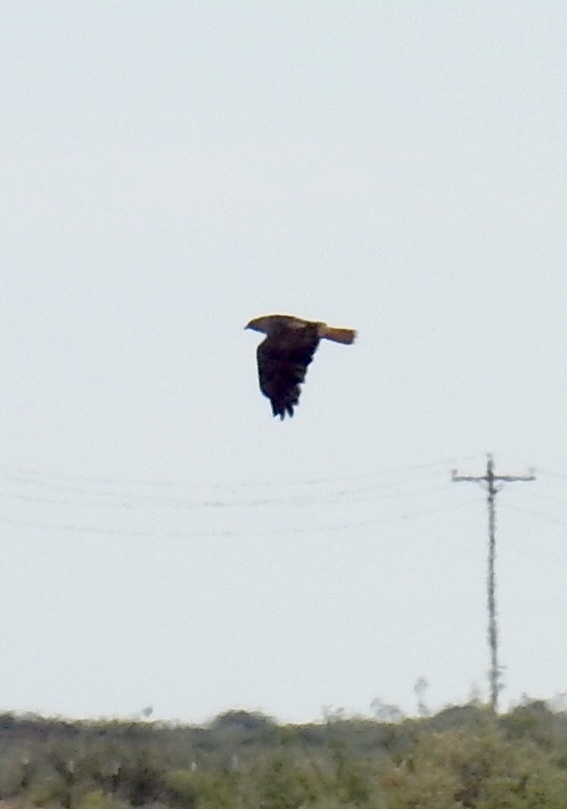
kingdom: Animalia
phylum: Chordata
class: Aves
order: Accipitriformes
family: Accipitridae
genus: Buteo
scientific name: Buteo jamaicensis
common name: Red-tailed hawk
